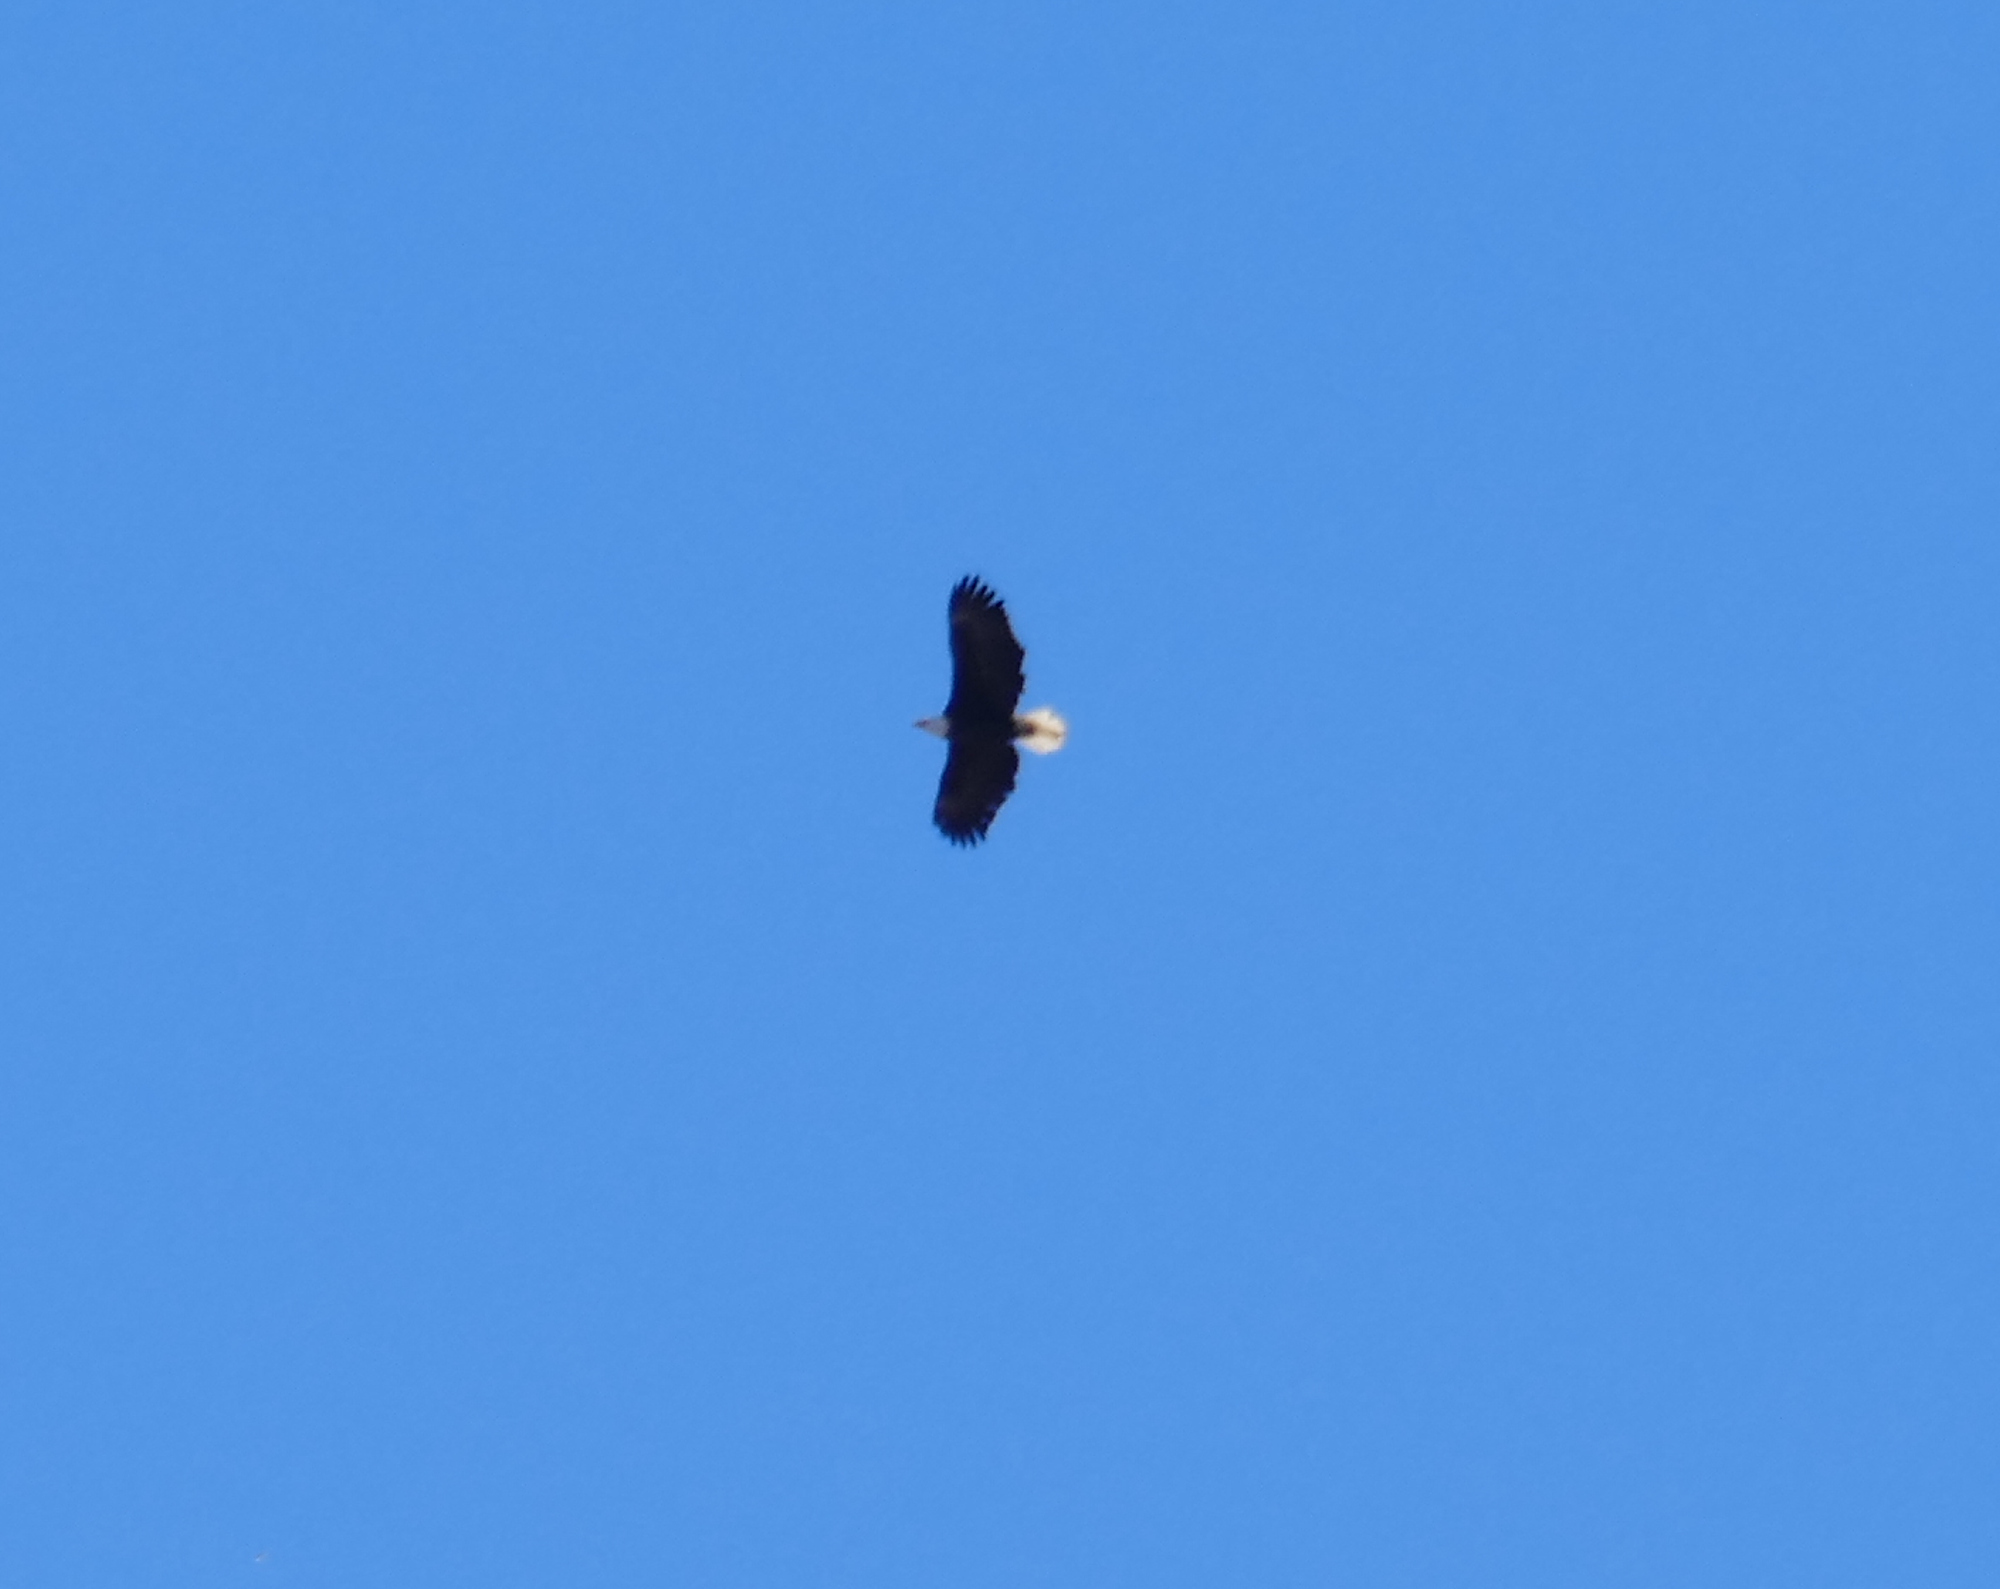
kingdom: Animalia
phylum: Chordata
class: Aves
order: Accipitriformes
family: Accipitridae
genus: Haliaeetus
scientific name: Haliaeetus leucocephalus
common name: Bald eagle
